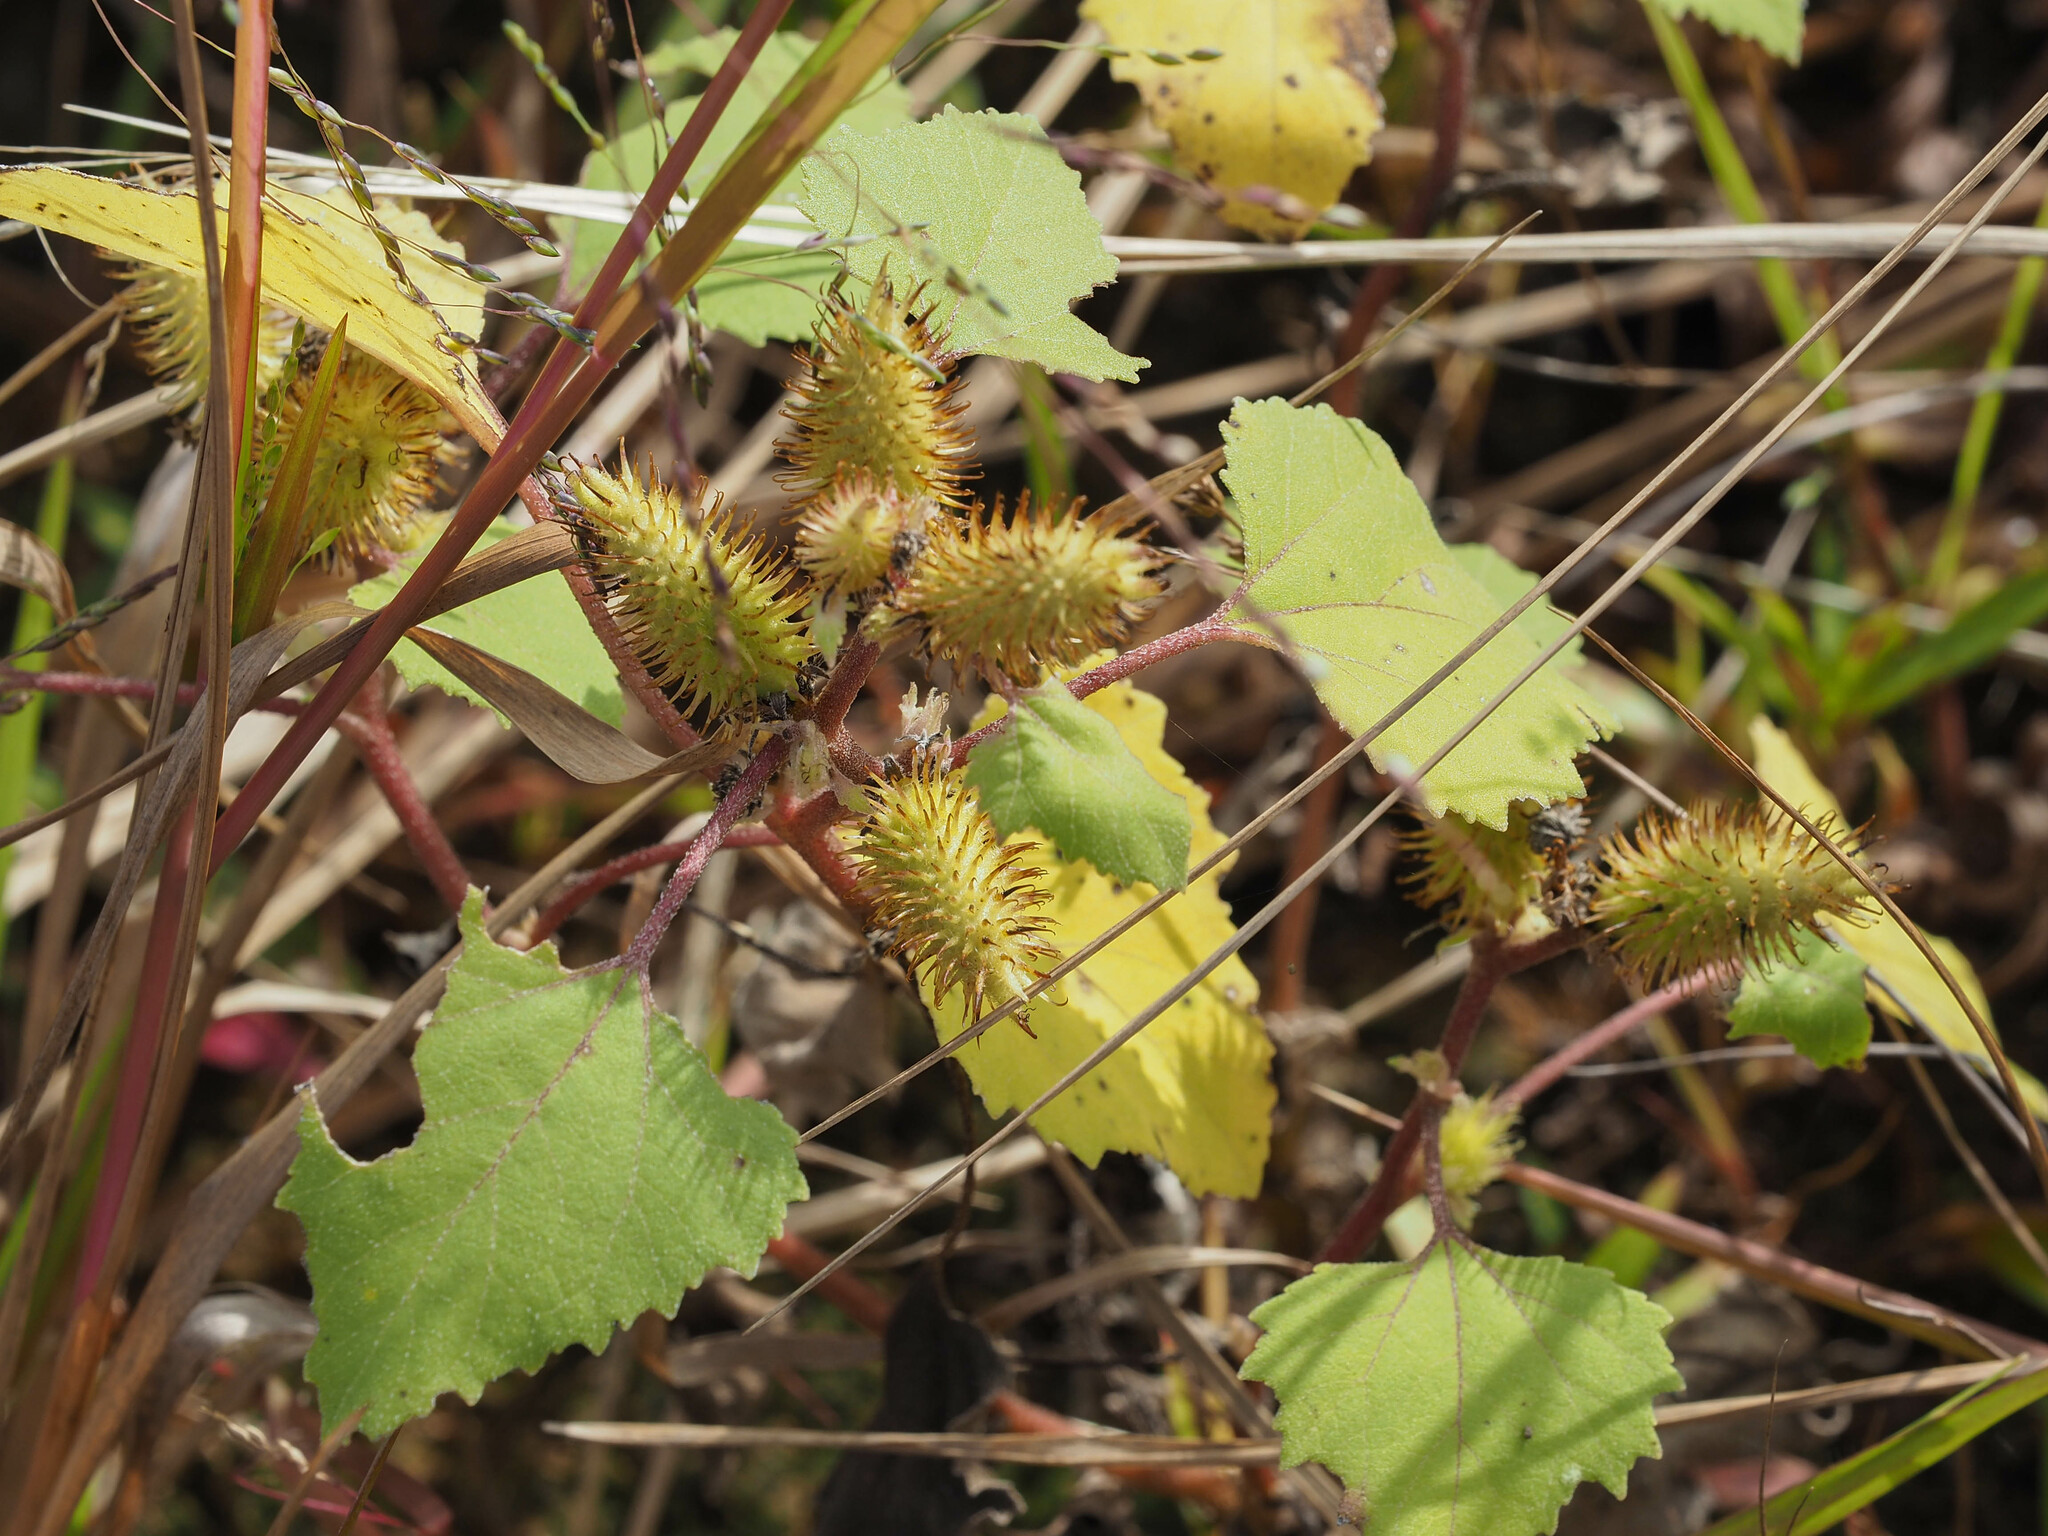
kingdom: Plantae
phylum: Tracheophyta
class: Magnoliopsida
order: Asterales
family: Asteraceae
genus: Xanthium
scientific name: Xanthium strumarium
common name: Rough cocklebur
